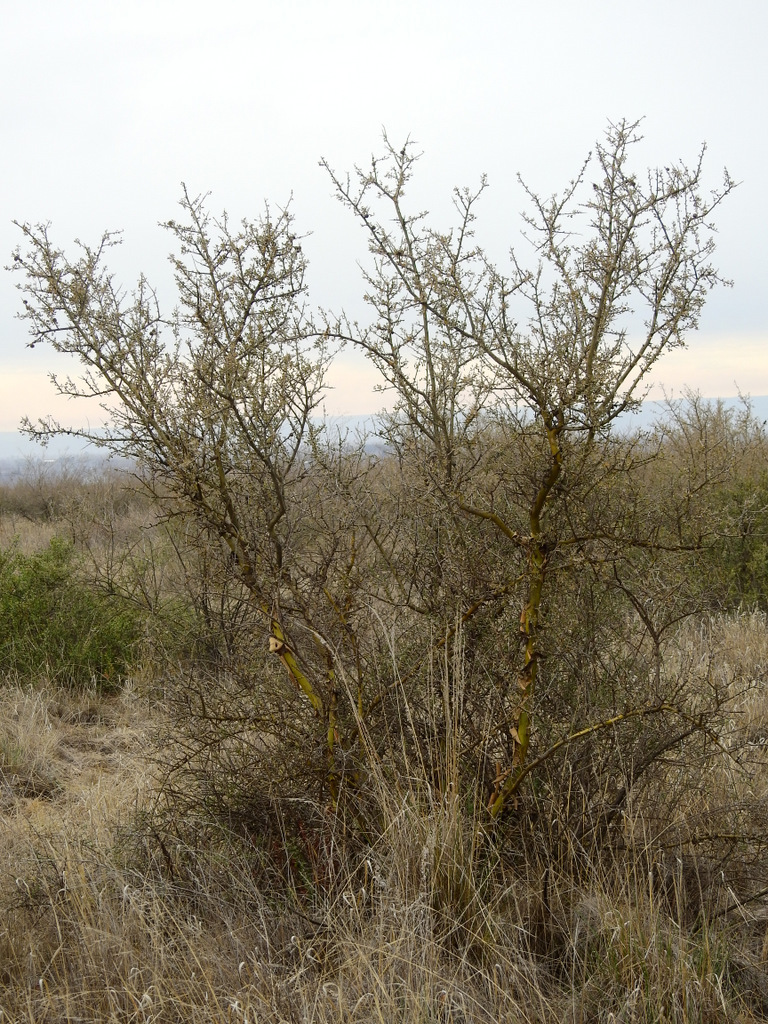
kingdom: Plantae
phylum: Tracheophyta
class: Magnoliopsida
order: Fabales
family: Fabaceae
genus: Geoffroea
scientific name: Geoffroea decorticans
